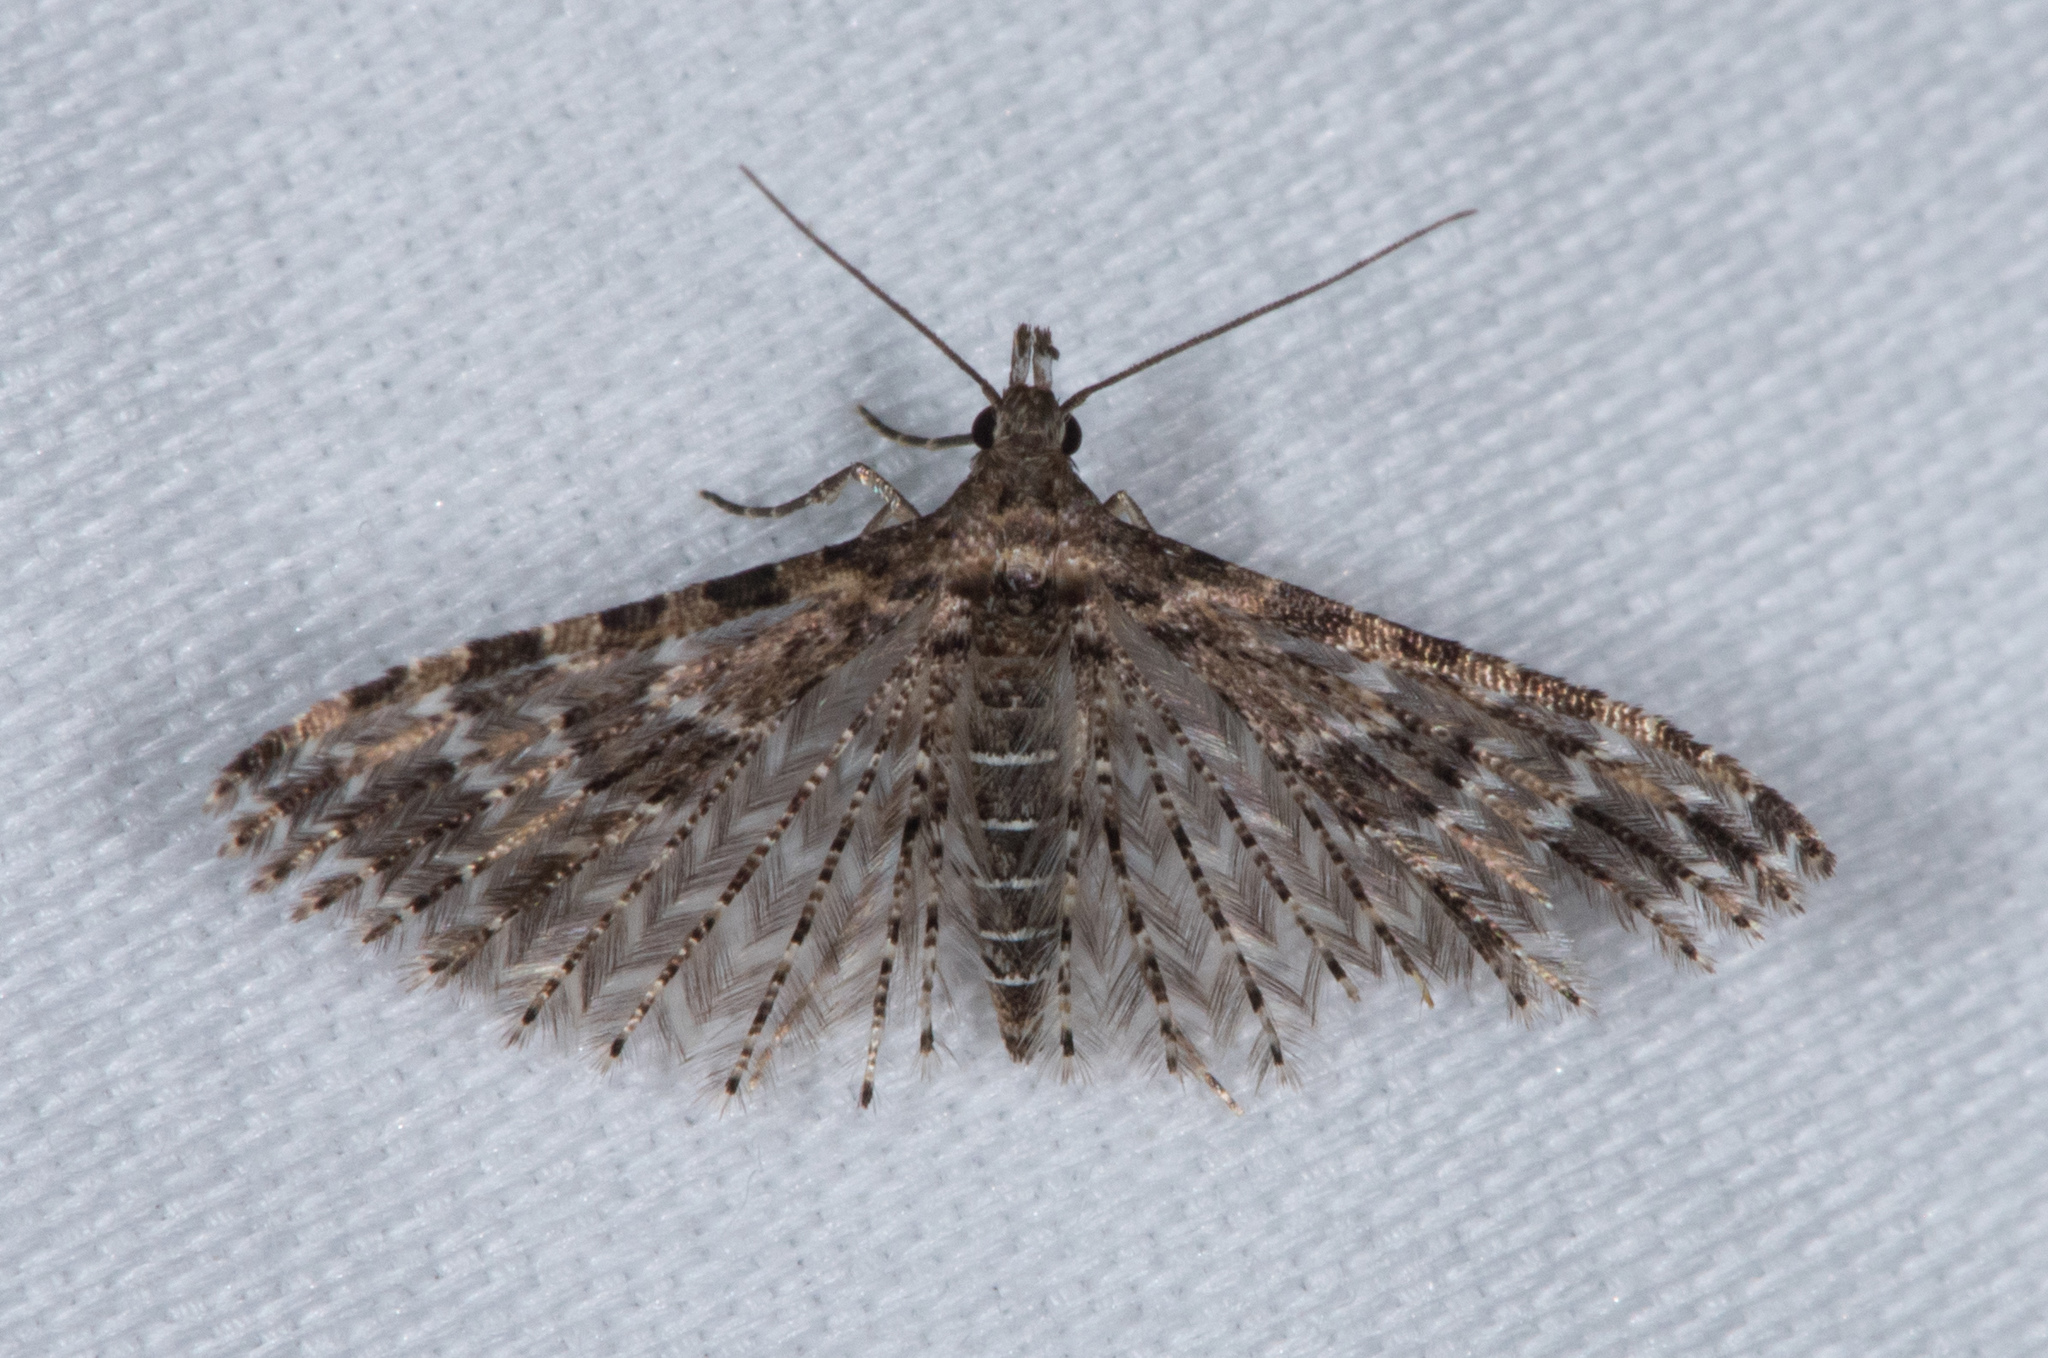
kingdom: Animalia
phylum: Arthropoda
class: Insecta
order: Lepidoptera
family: Alucitidae
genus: Alucita
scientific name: Alucita montana
